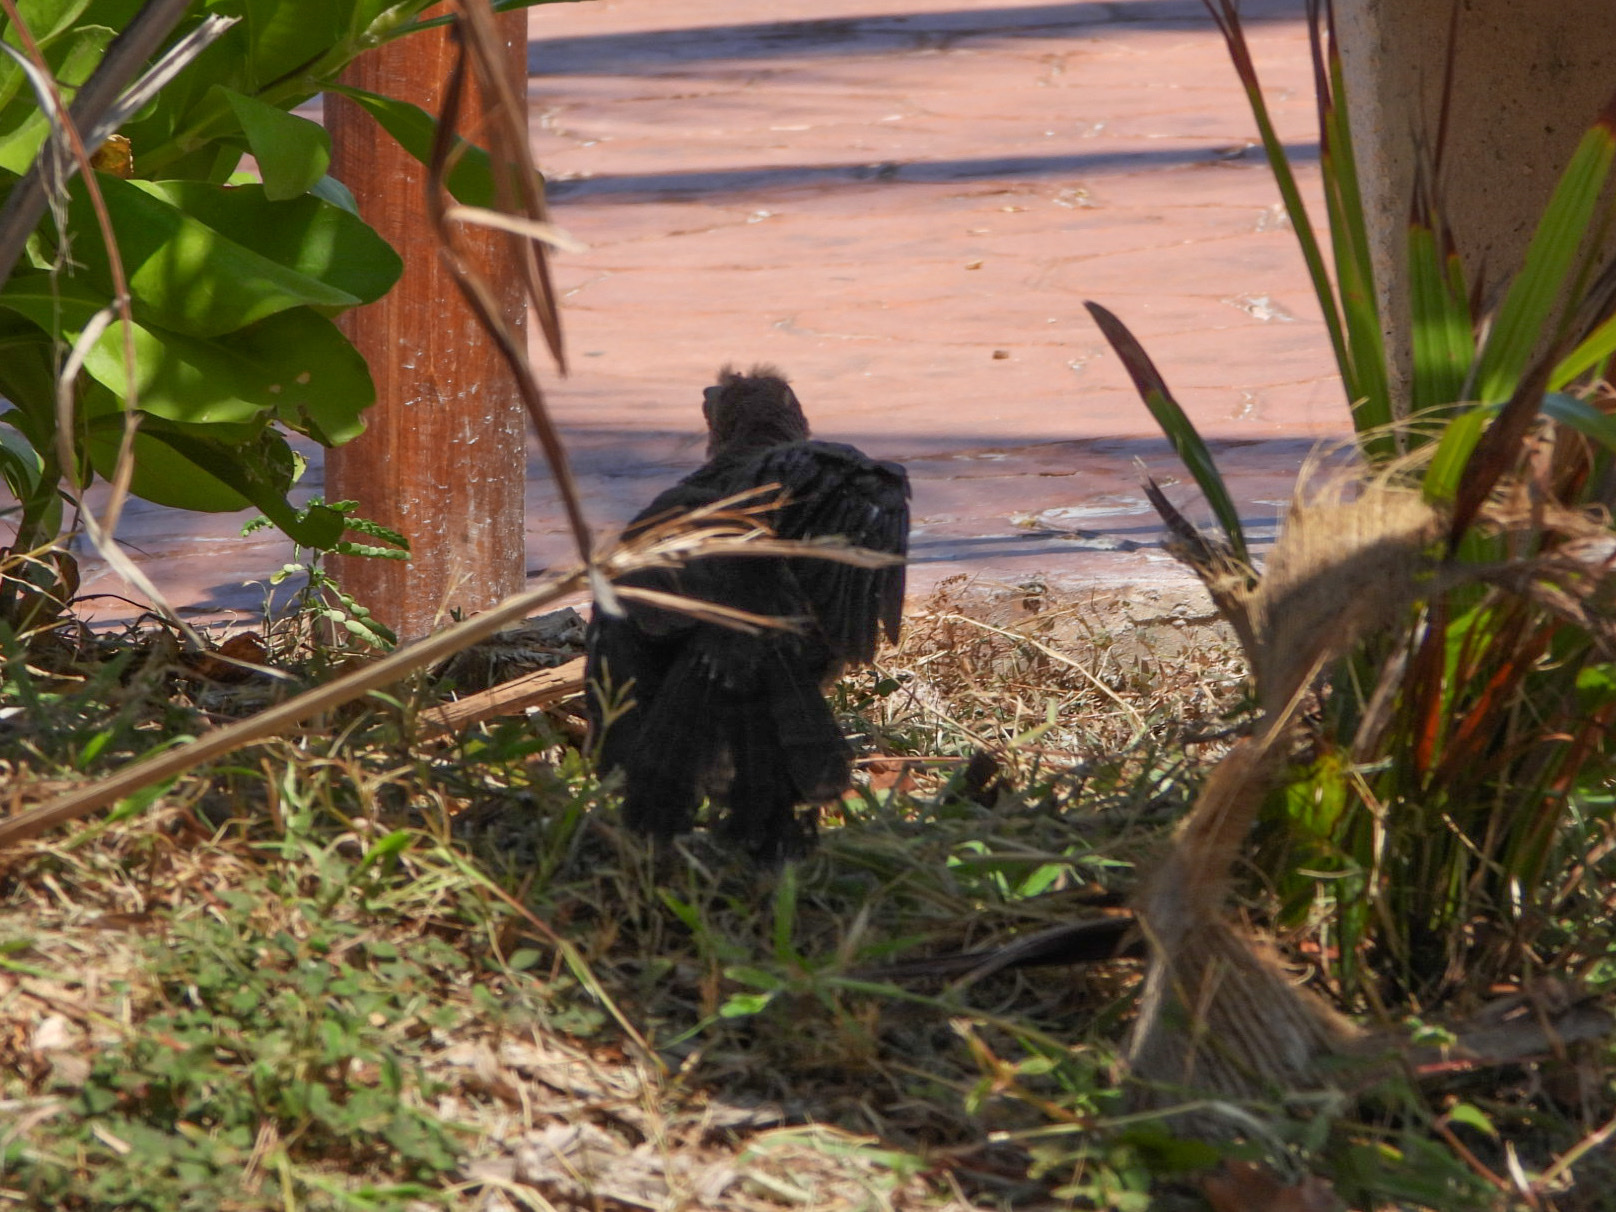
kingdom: Animalia
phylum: Chordata
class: Aves
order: Passeriformes
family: Icteridae
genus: Quiscalus
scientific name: Quiscalus mexicanus
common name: Great-tailed grackle
